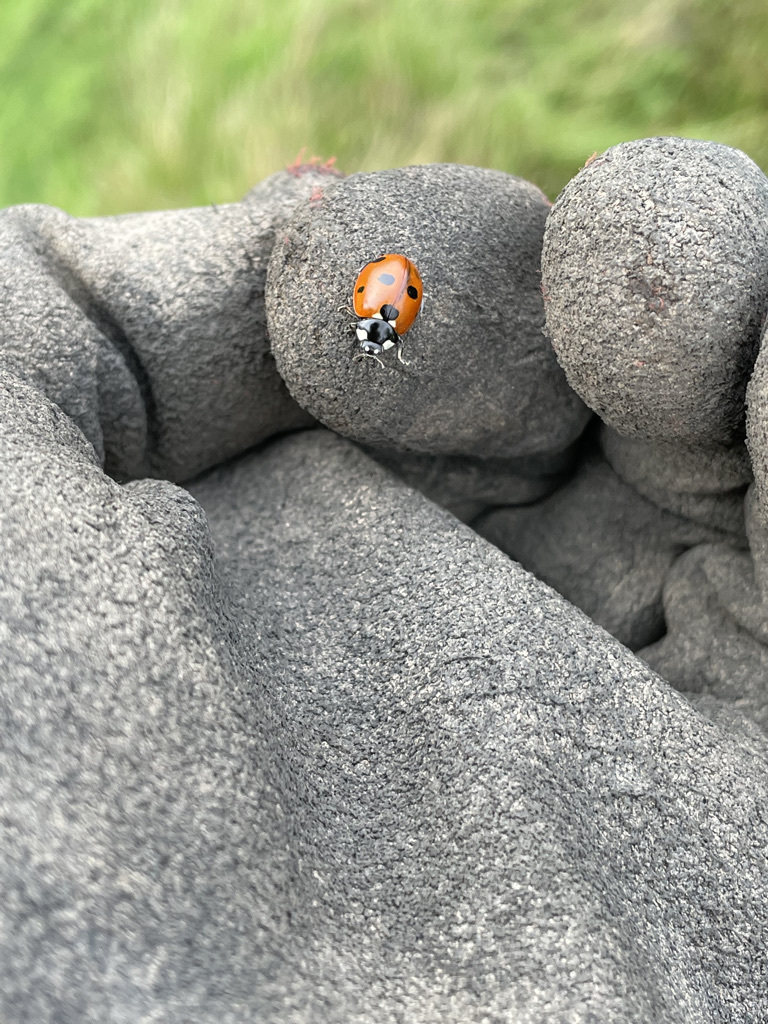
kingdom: Animalia
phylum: Arthropoda
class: Insecta
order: Coleoptera
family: Coccinellidae
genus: Coccinella
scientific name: Coccinella septempunctata
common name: Sevenspotted lady beetle
